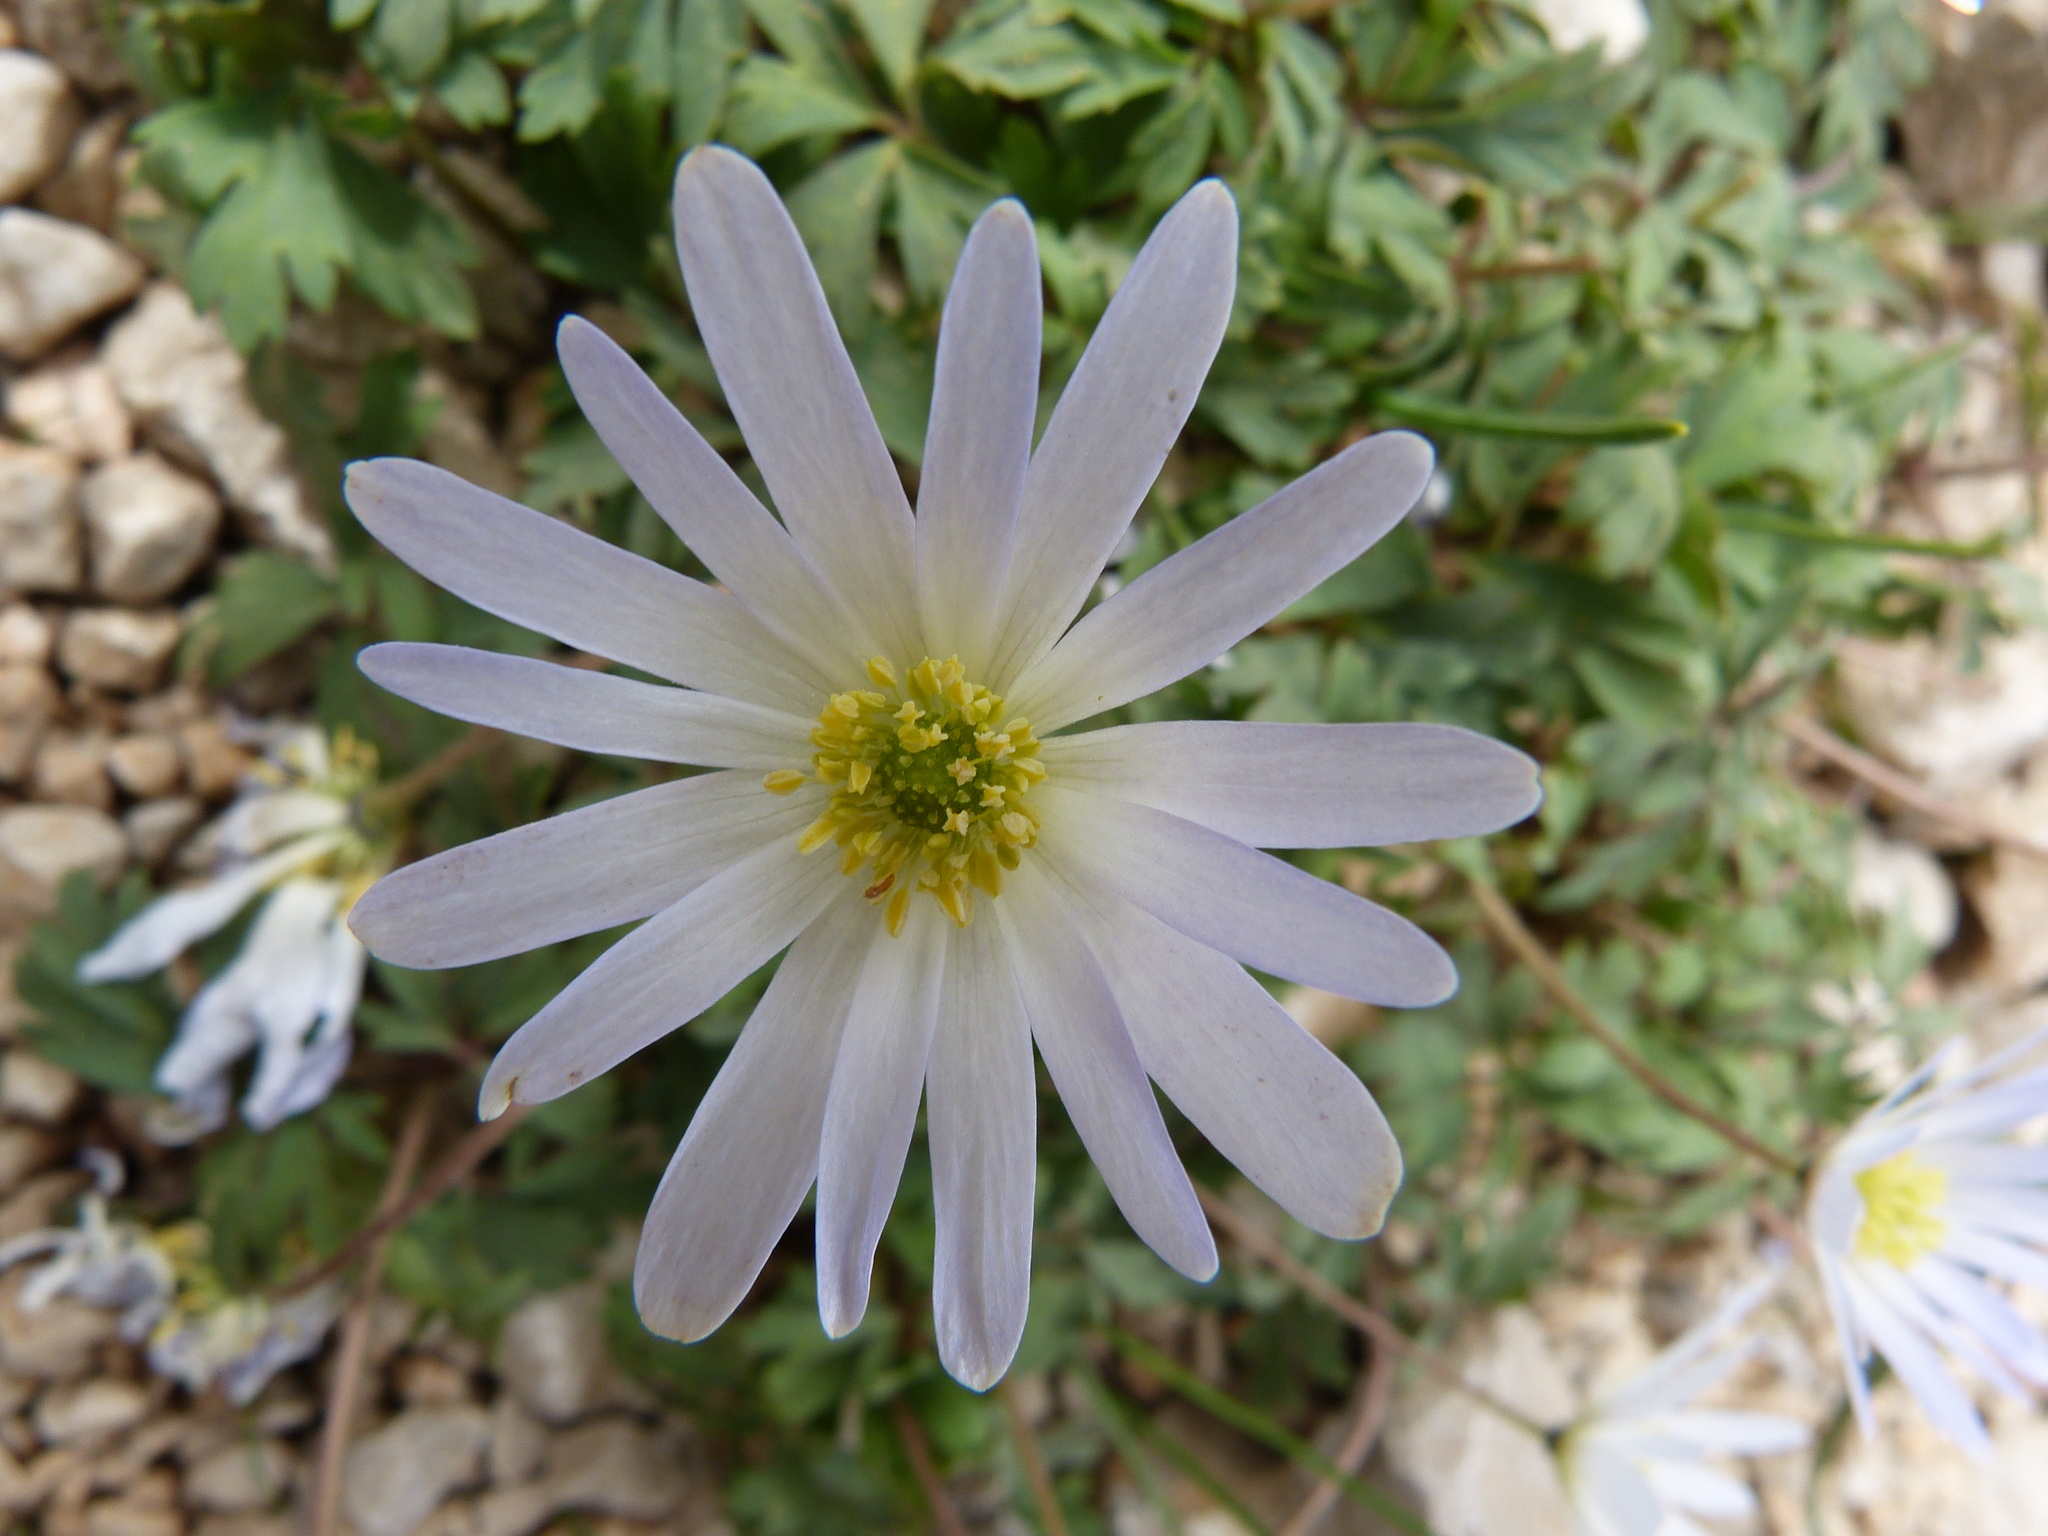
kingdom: Plantae
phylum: Tracheophyta
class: Magnoliopsida
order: Ranunculales
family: Ranunculaceae
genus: Anemone
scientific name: Anemone blanda
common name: Balkan anemone
